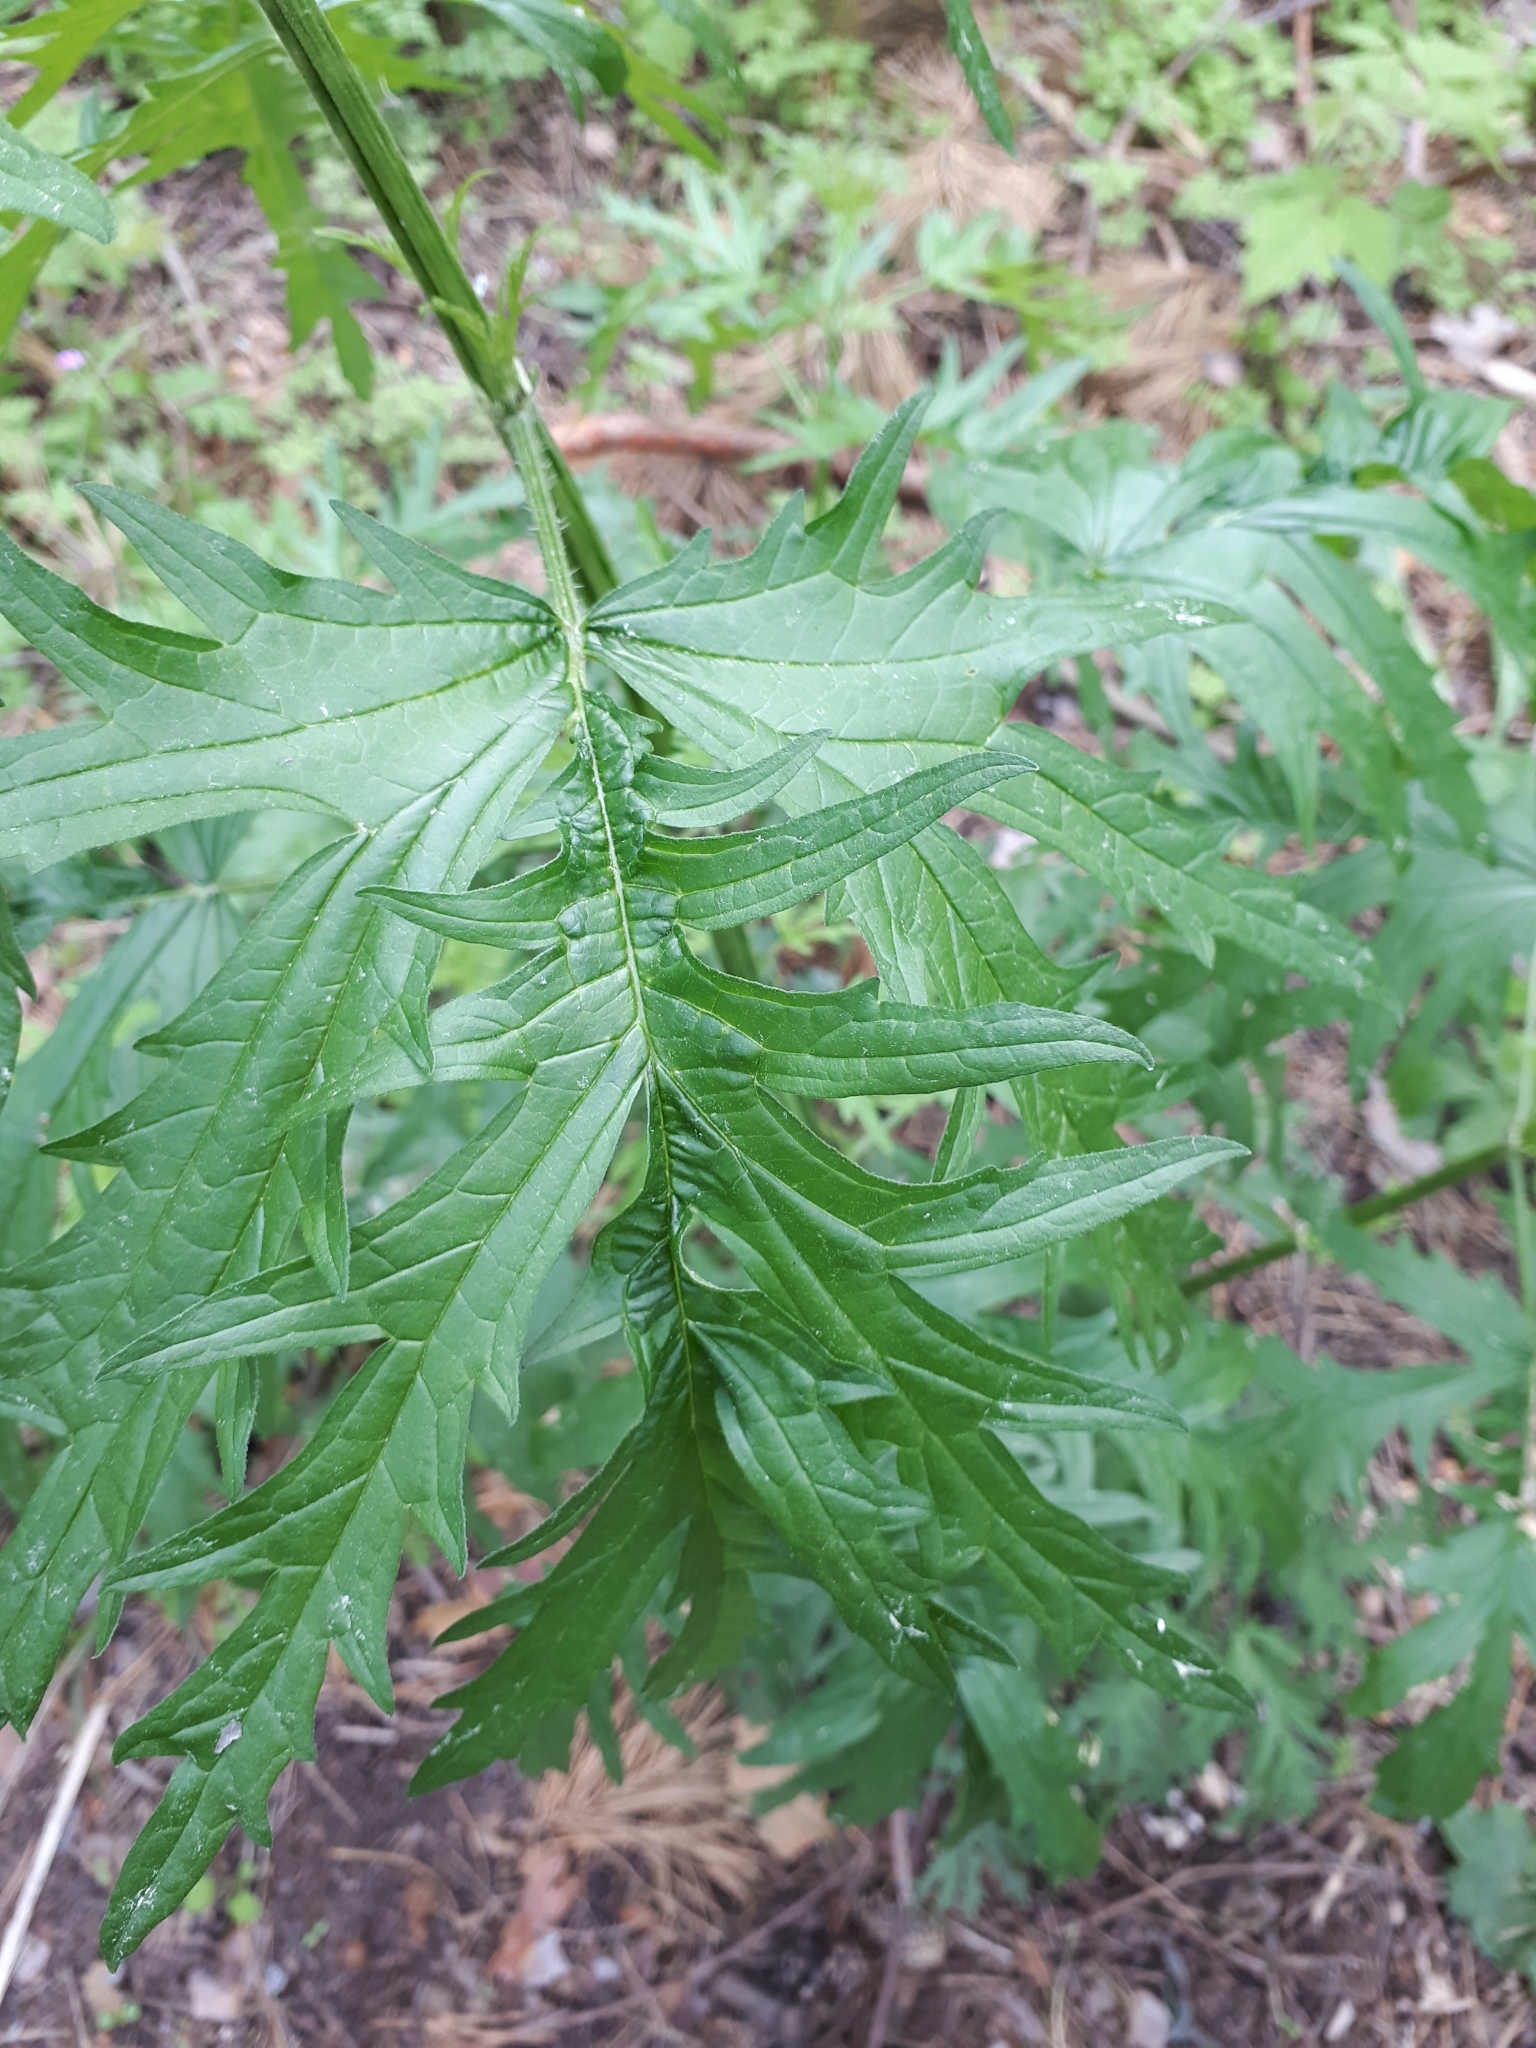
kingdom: Plantae
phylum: Tracheophyta
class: Magnoliopsida
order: Rosales
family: Urticaceae
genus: Urtica
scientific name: Urtica cannabina
